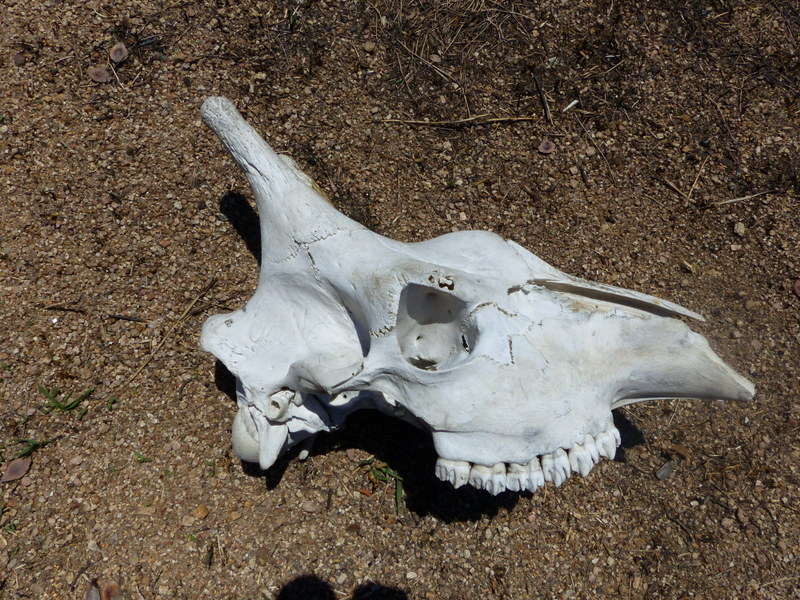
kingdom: Animalia
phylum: Chordata
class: Mammalia
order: Artiodactyla
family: Giraffidae
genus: Giraffa
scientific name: Giraffa giraffa
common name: Southern giraffe
